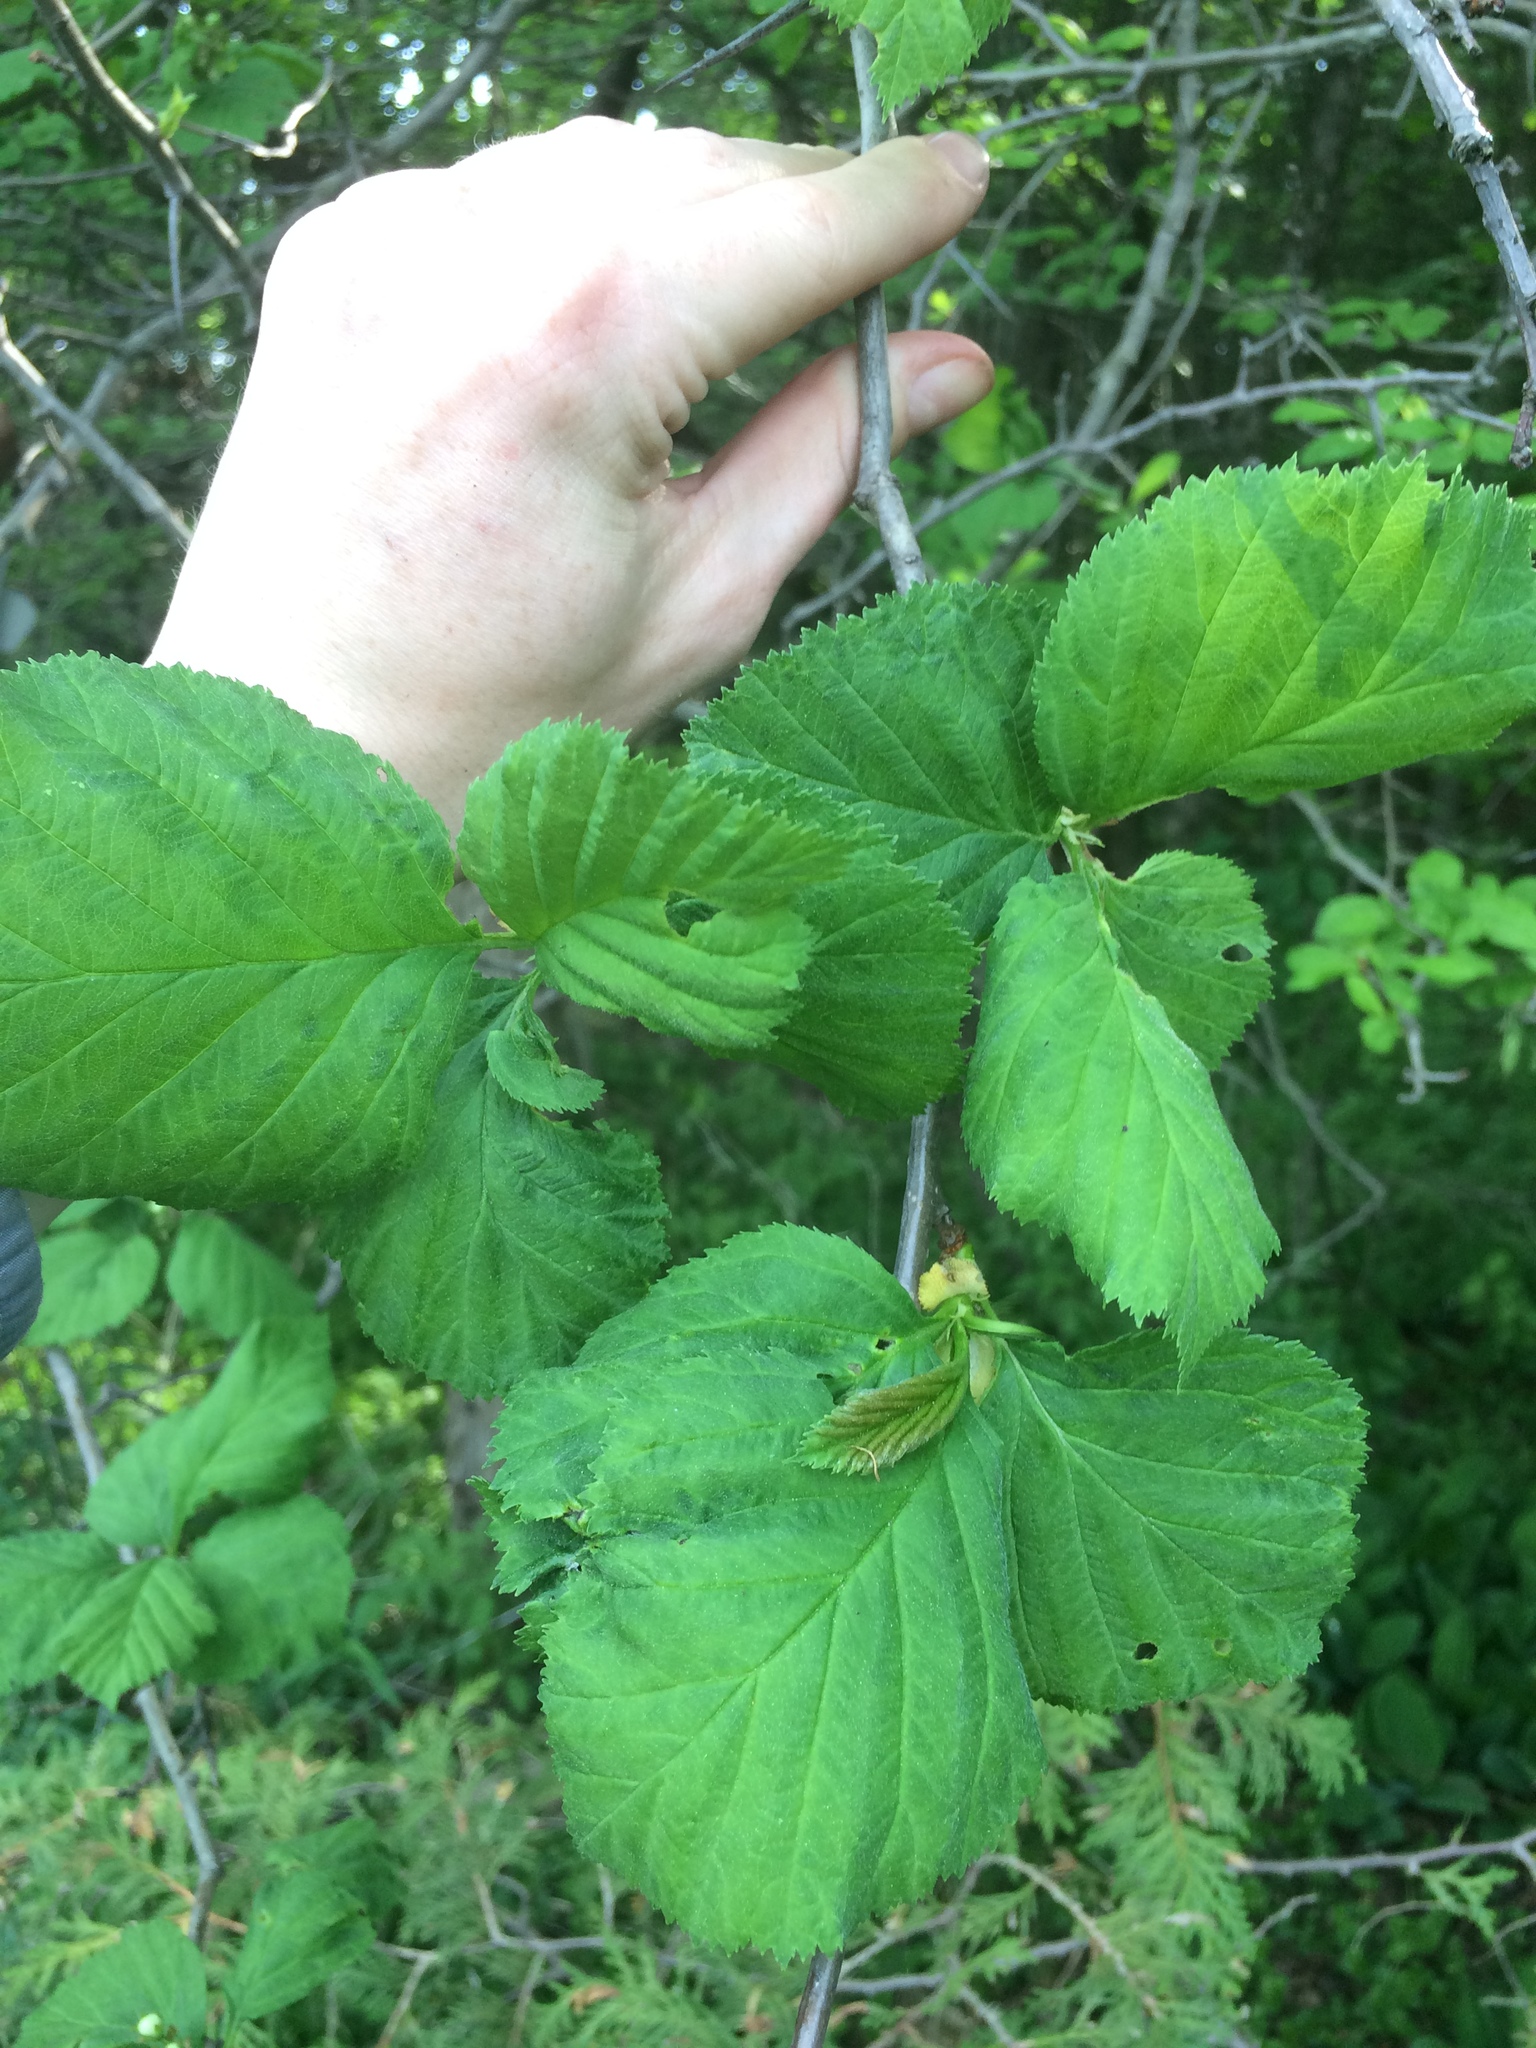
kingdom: Plantae
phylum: Tracheophyta
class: Magnoliopsida
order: Rosales
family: Rosaceae
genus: Crataegus
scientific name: Crataegus macracantha
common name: Large-thorn hawthorn
